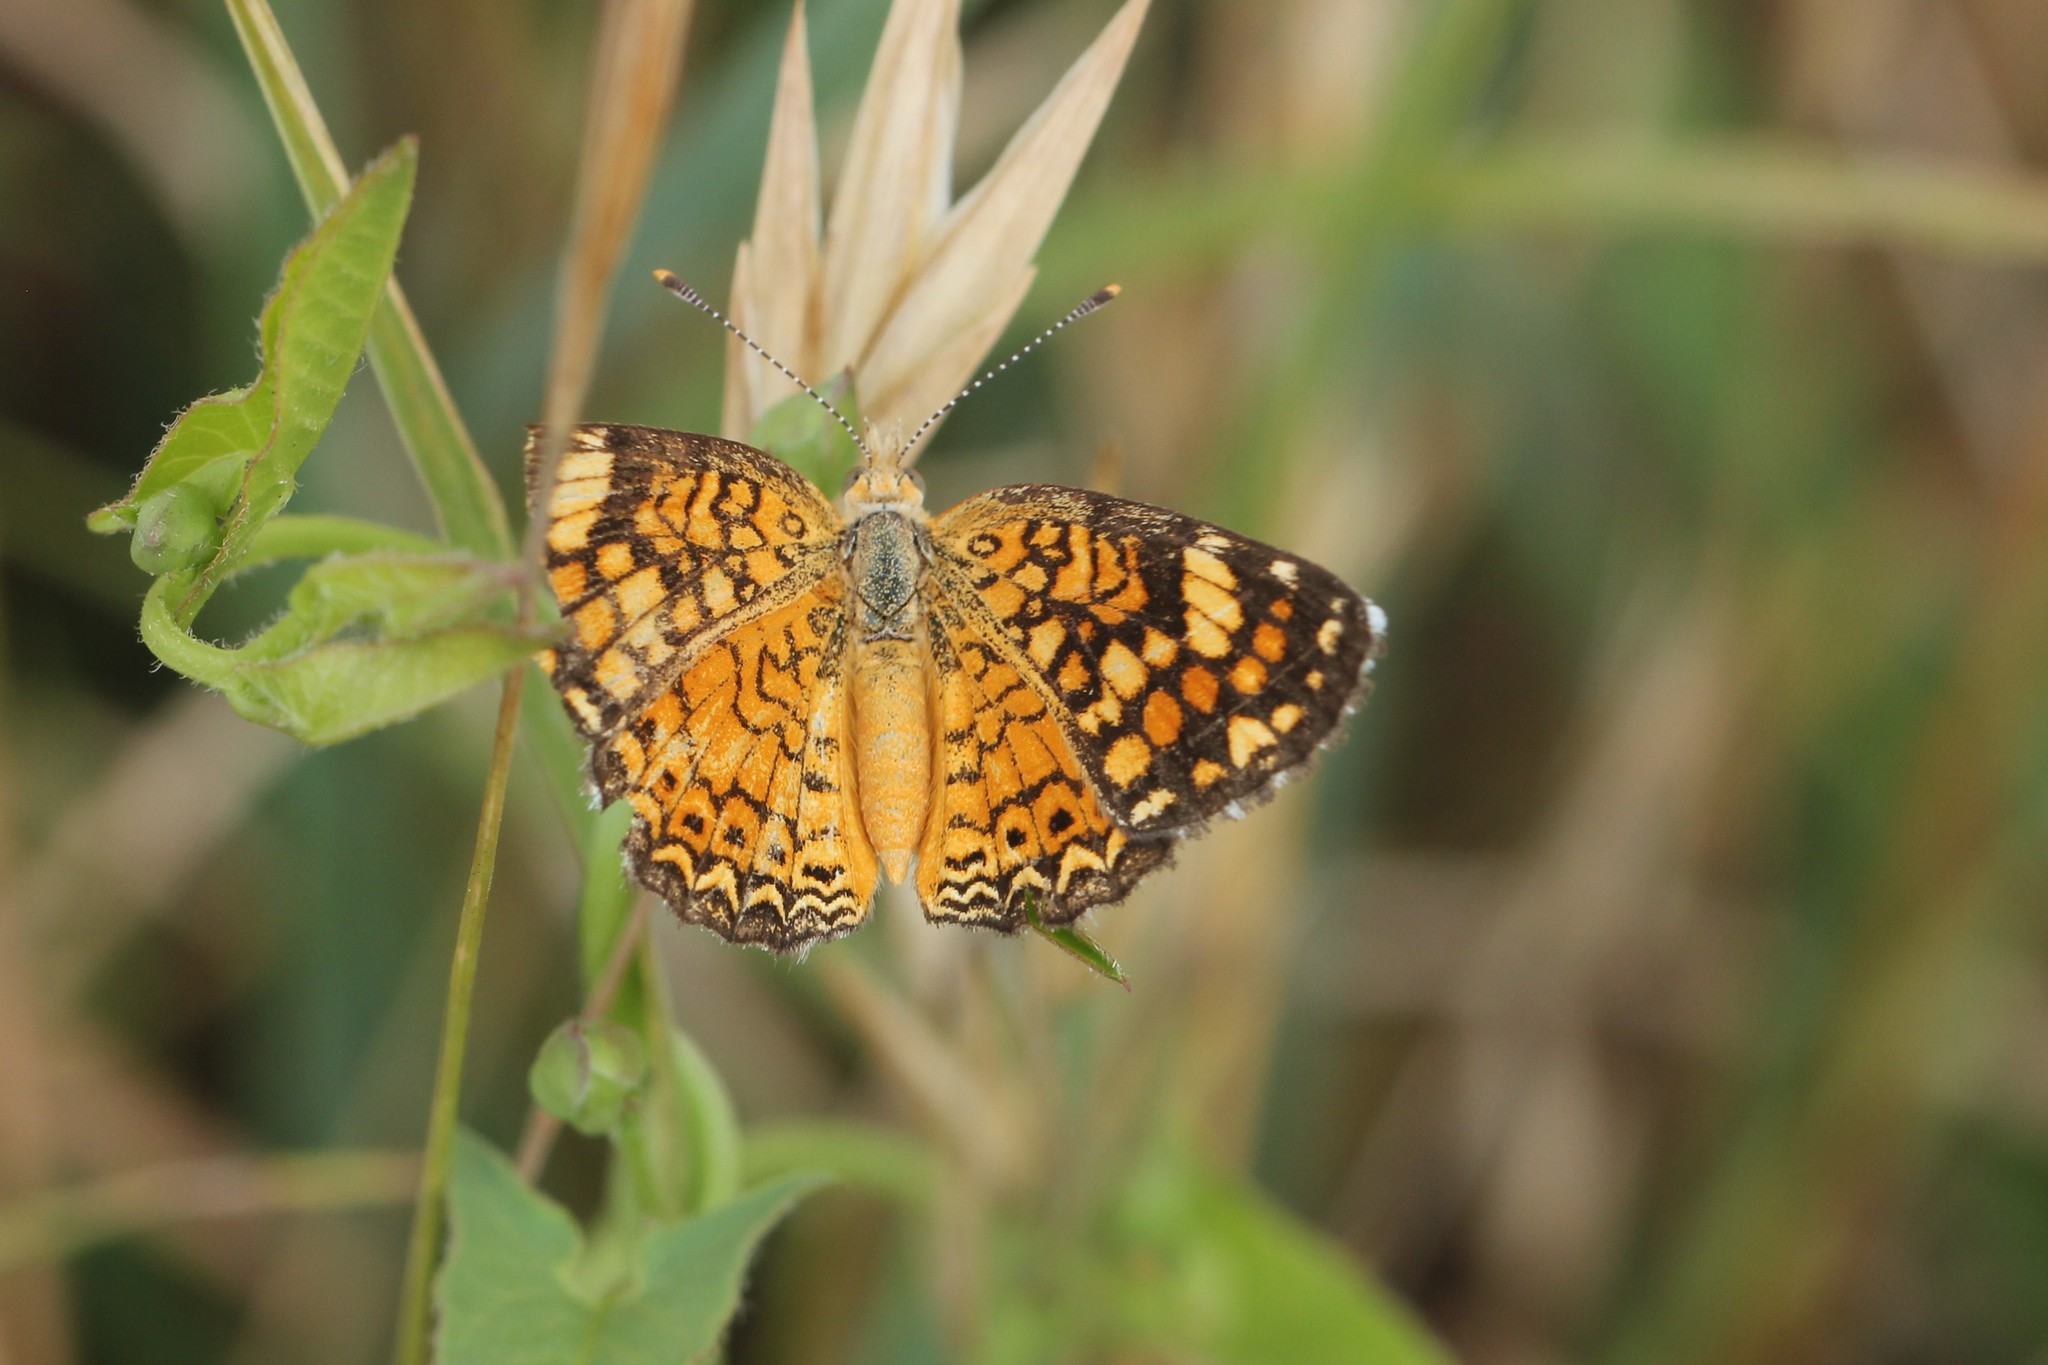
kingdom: Animalia
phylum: Arthropoda
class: Insecta
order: Lepidoptera
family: Nymphalidae
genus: Phyciodes
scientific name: Phyciodes phaon
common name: Phaon crescent
